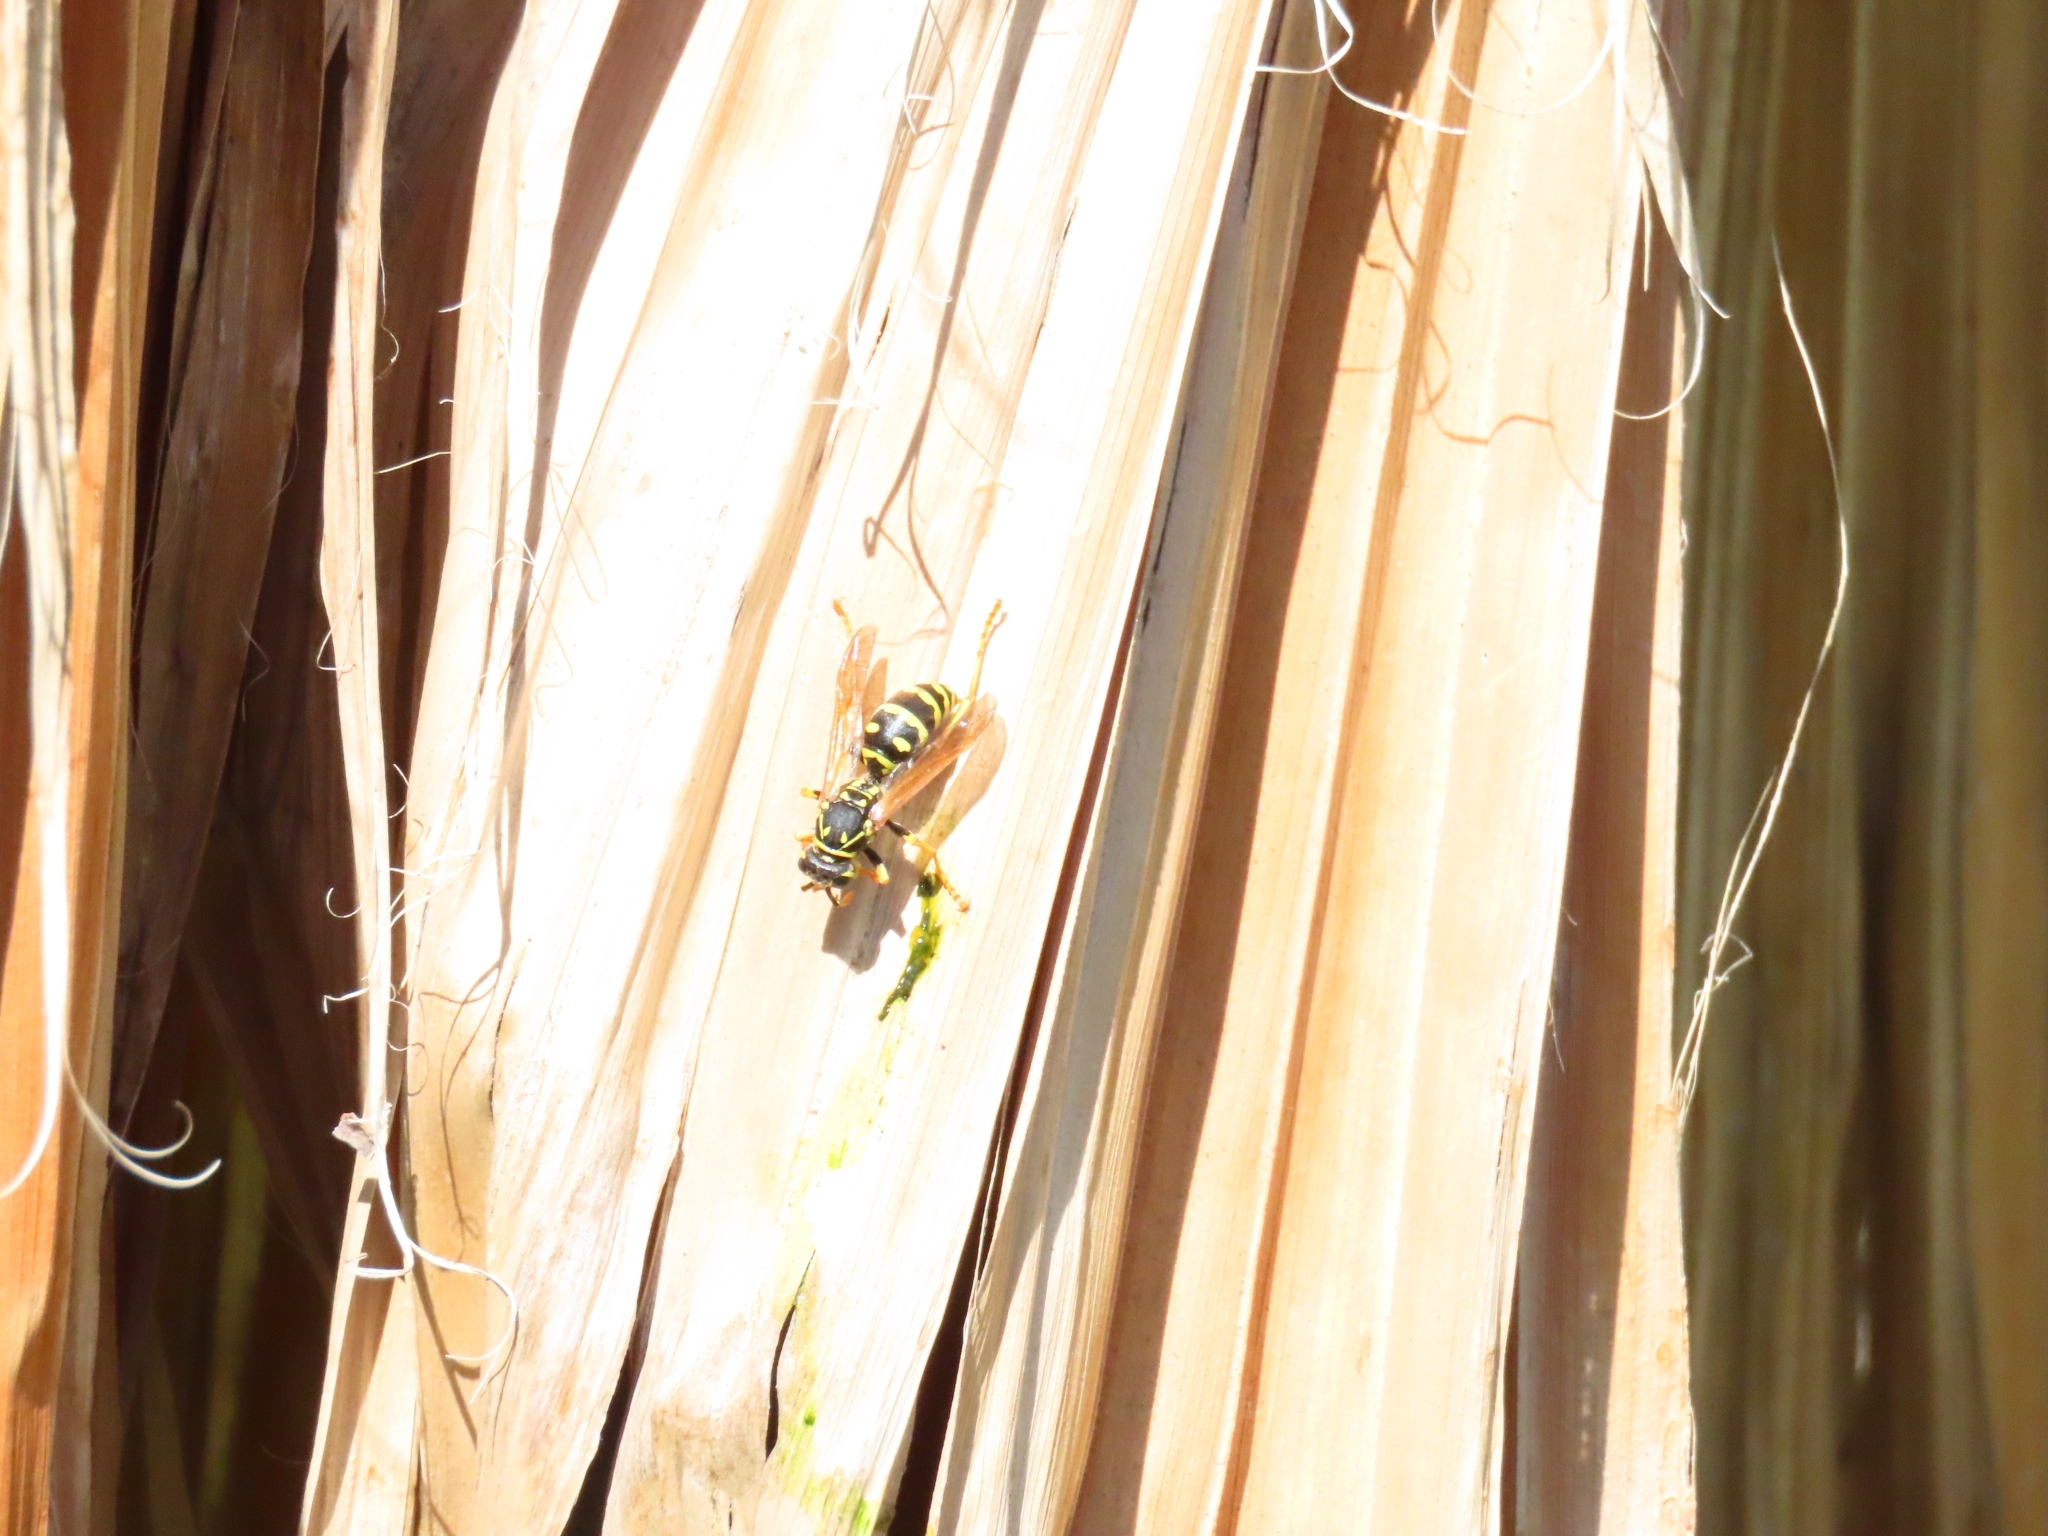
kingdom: Animalia
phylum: Arthropoda
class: Insecta
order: Hymenoptera
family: Eumenidae
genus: Polistes
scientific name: Polistes dominula
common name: Paper wasp
